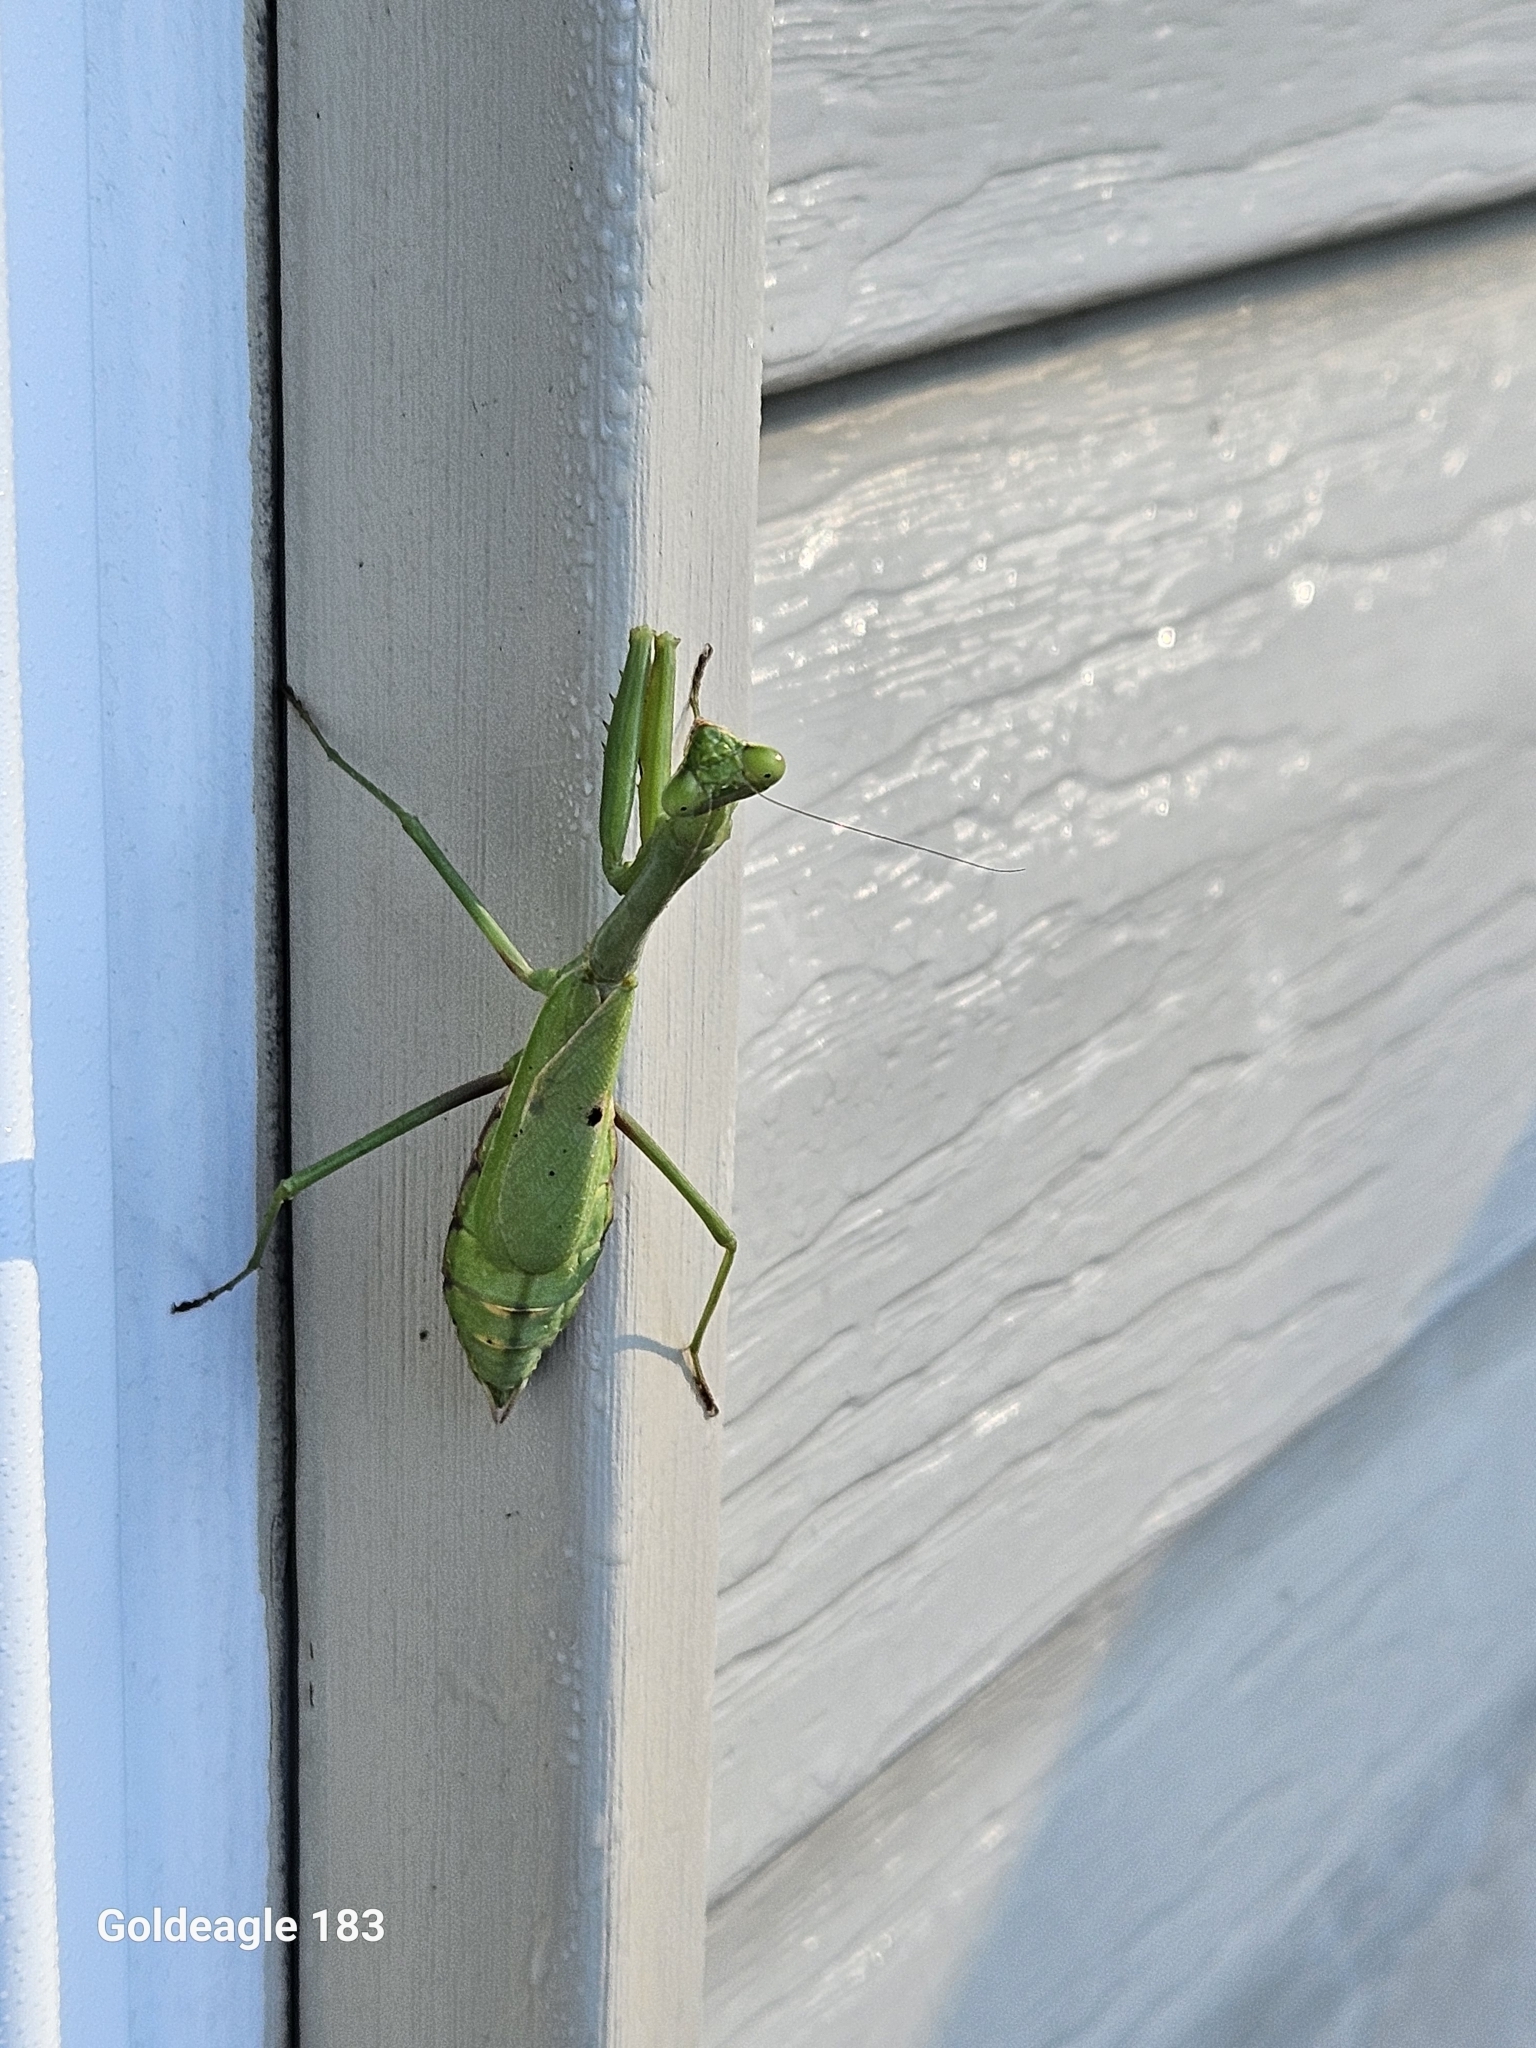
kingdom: Animalia
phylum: Arthropoda
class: Insecta
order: Mantodea
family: Mantidae
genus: Stagmomantis
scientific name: Stagmomantis carolina
